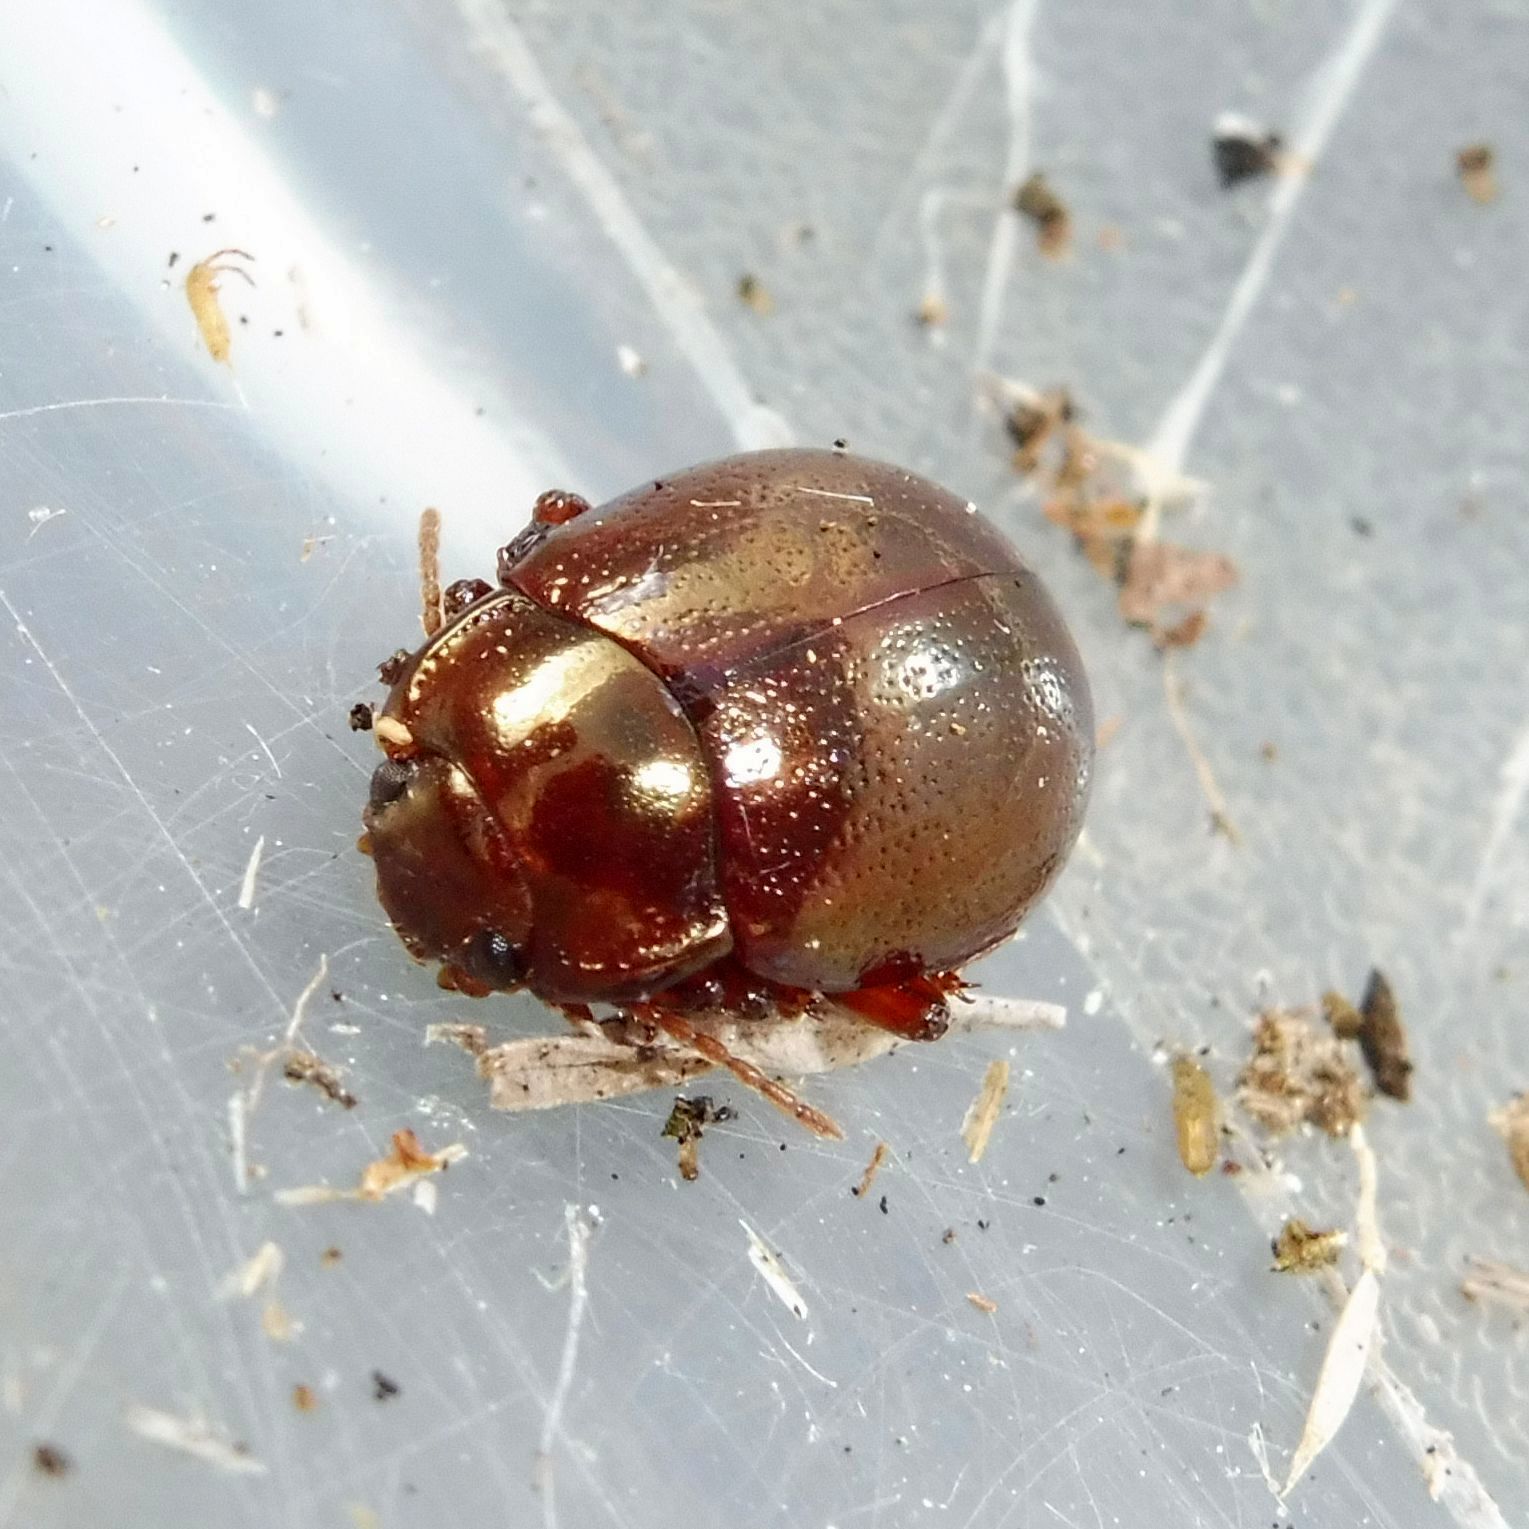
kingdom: Animalia
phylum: Arthropoda
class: Insecta
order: Coleoptera
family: Chrysomelidae
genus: Chrysolina
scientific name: Chrysolina staphylaea
